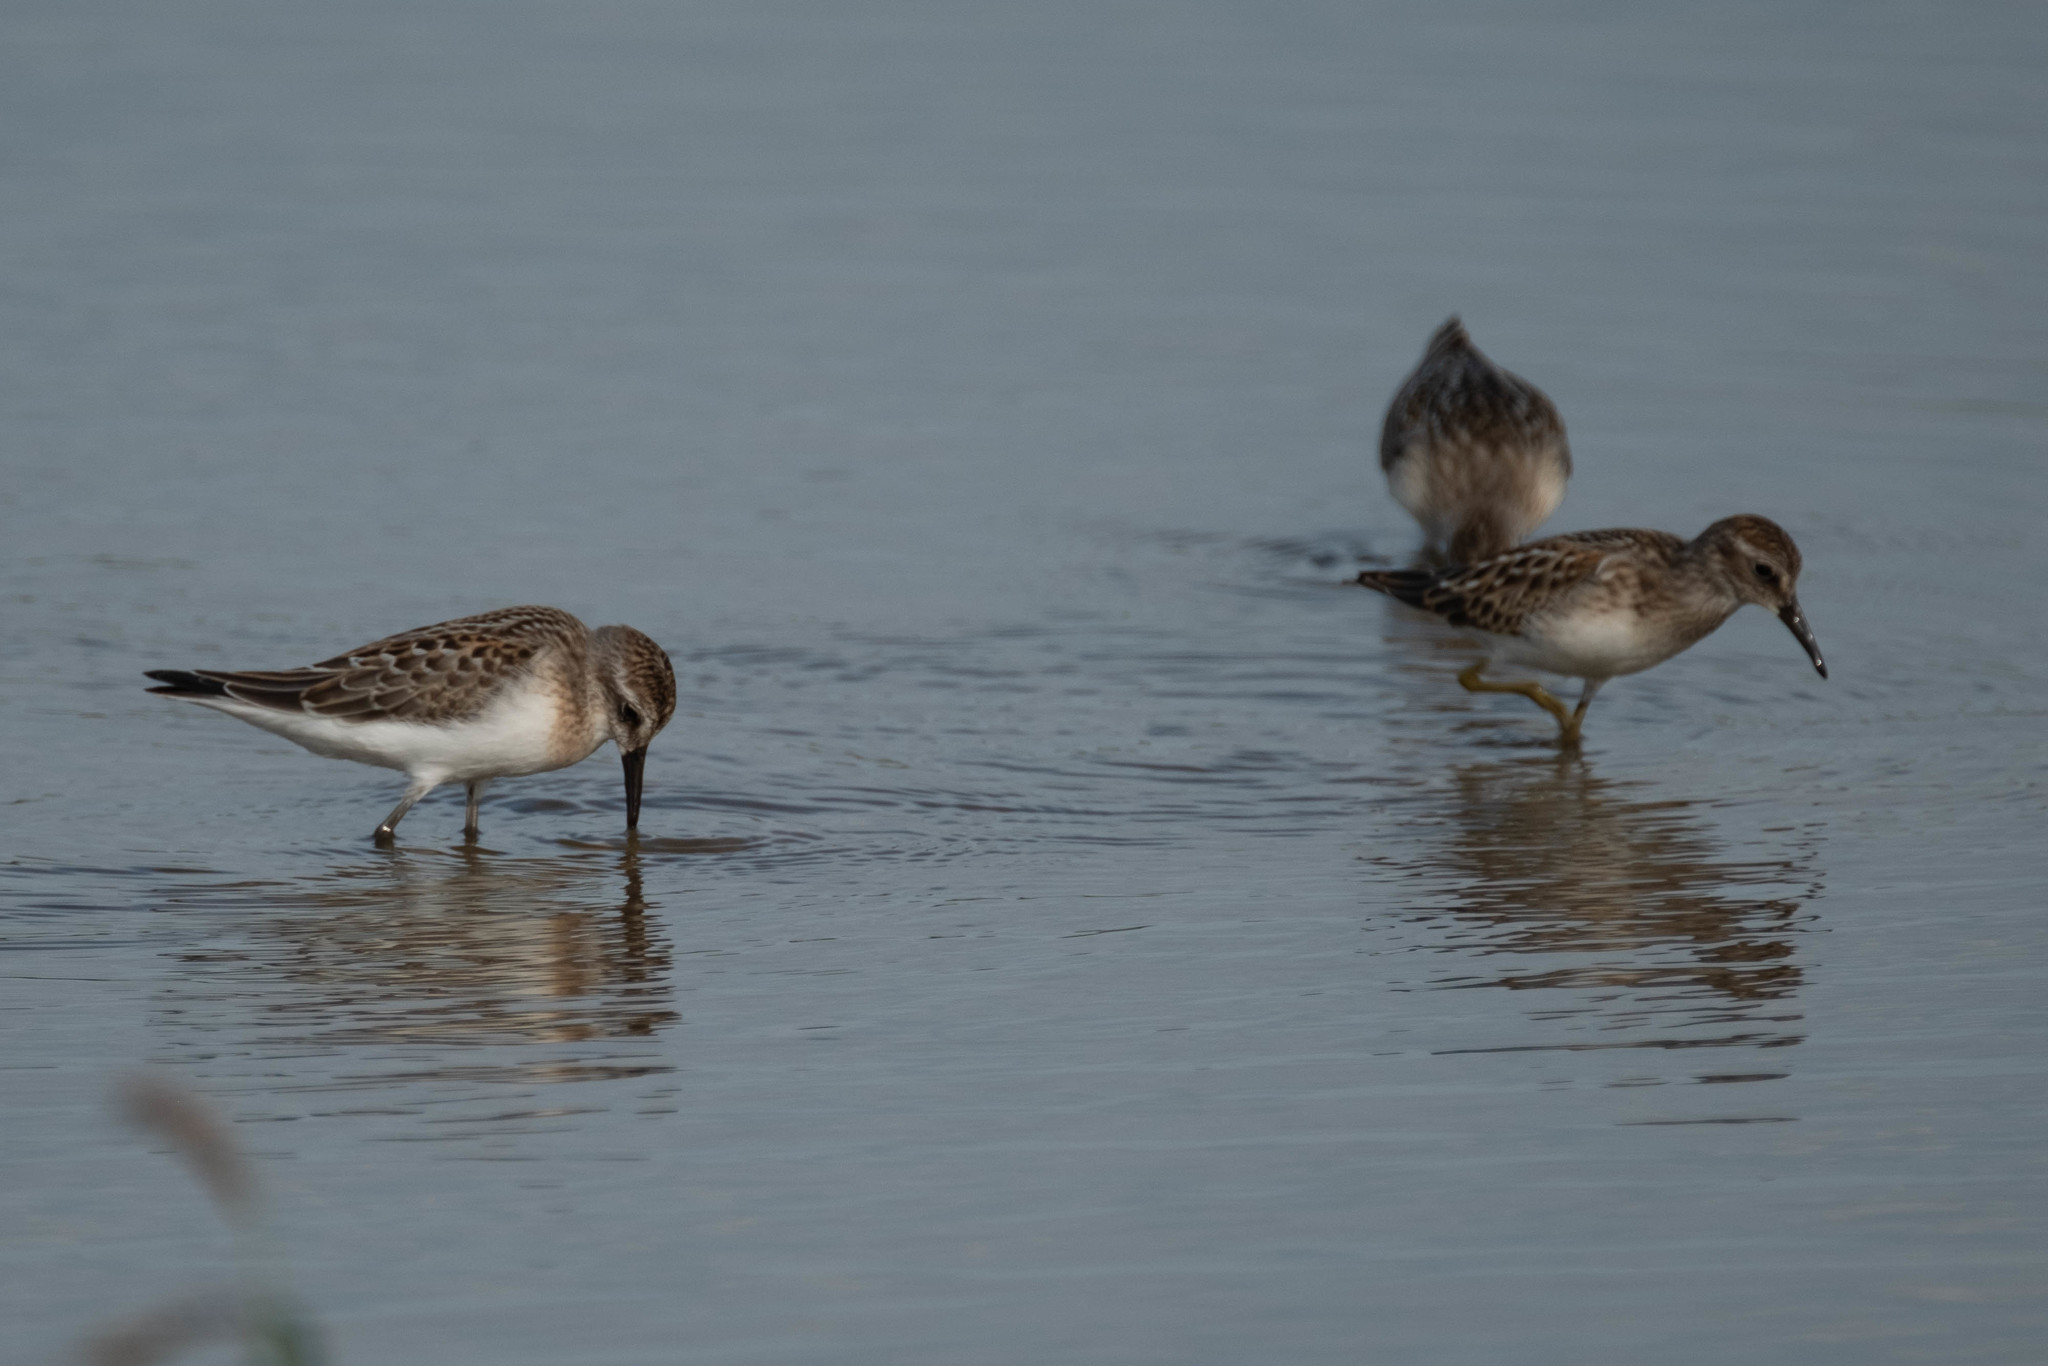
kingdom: Animalia
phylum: Chordata
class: Aves
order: Charadriiformes
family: Scolopacidae
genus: Calidris
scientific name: Calidris pusilla
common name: Semipalmated sandpiper
